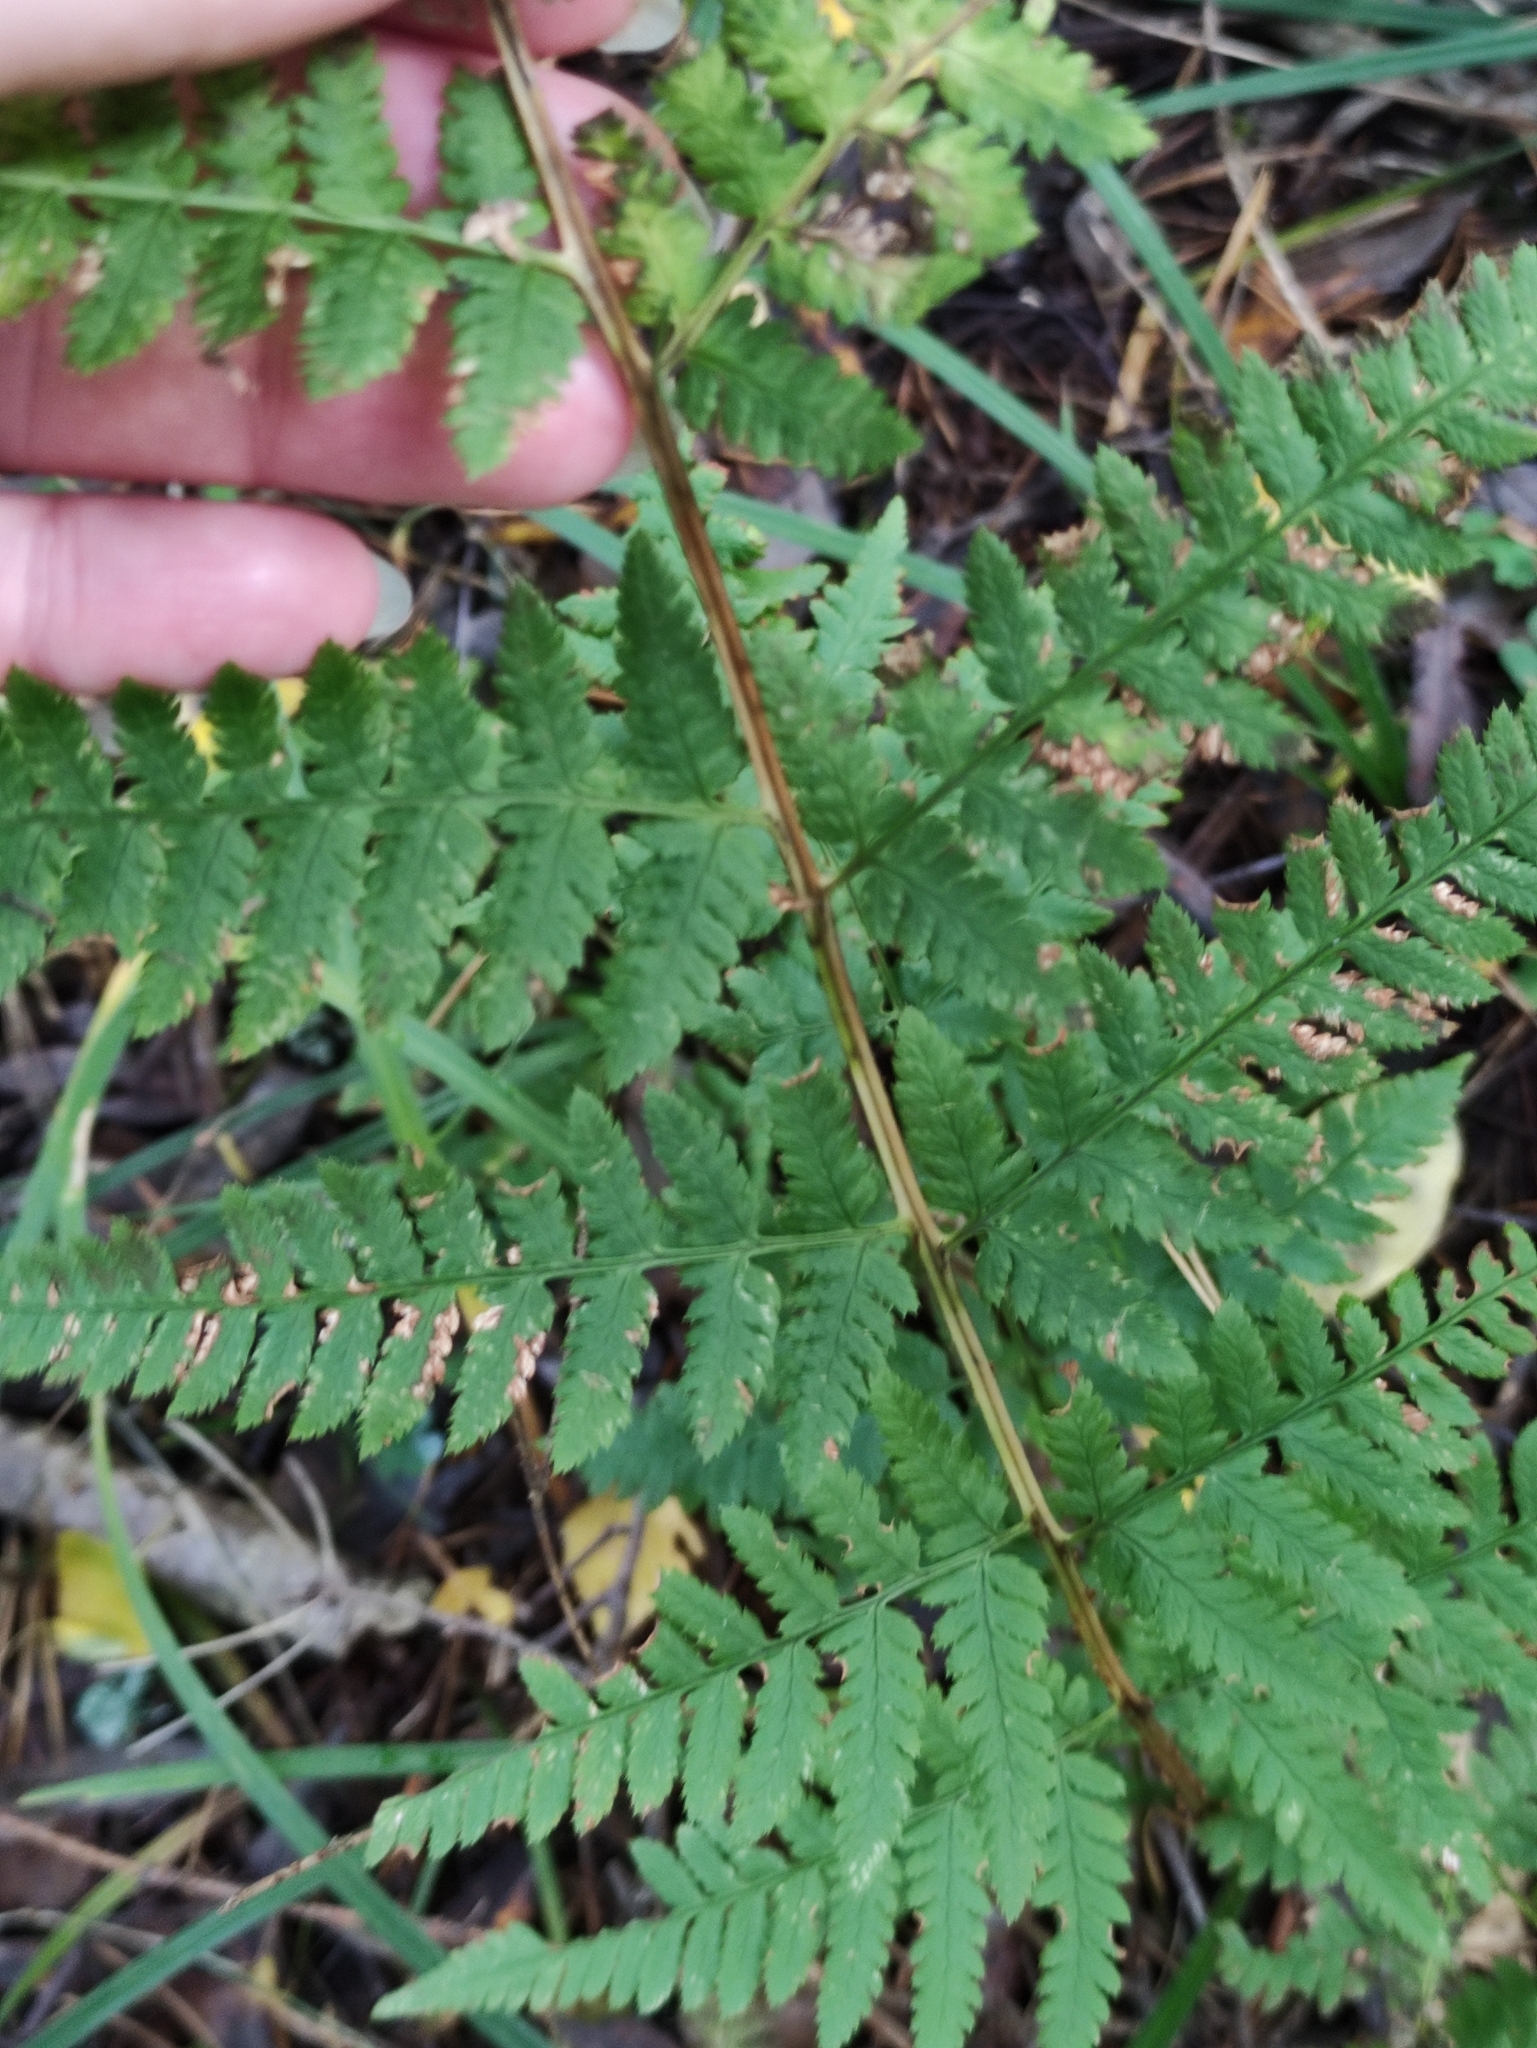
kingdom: Plantae
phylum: Tracheophyta
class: Polypodiopsida
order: Polypodiales
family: Dryopteridaceae
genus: Dryopteris
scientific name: Dryopteris carthusiana
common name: Narrow buckler-fern
